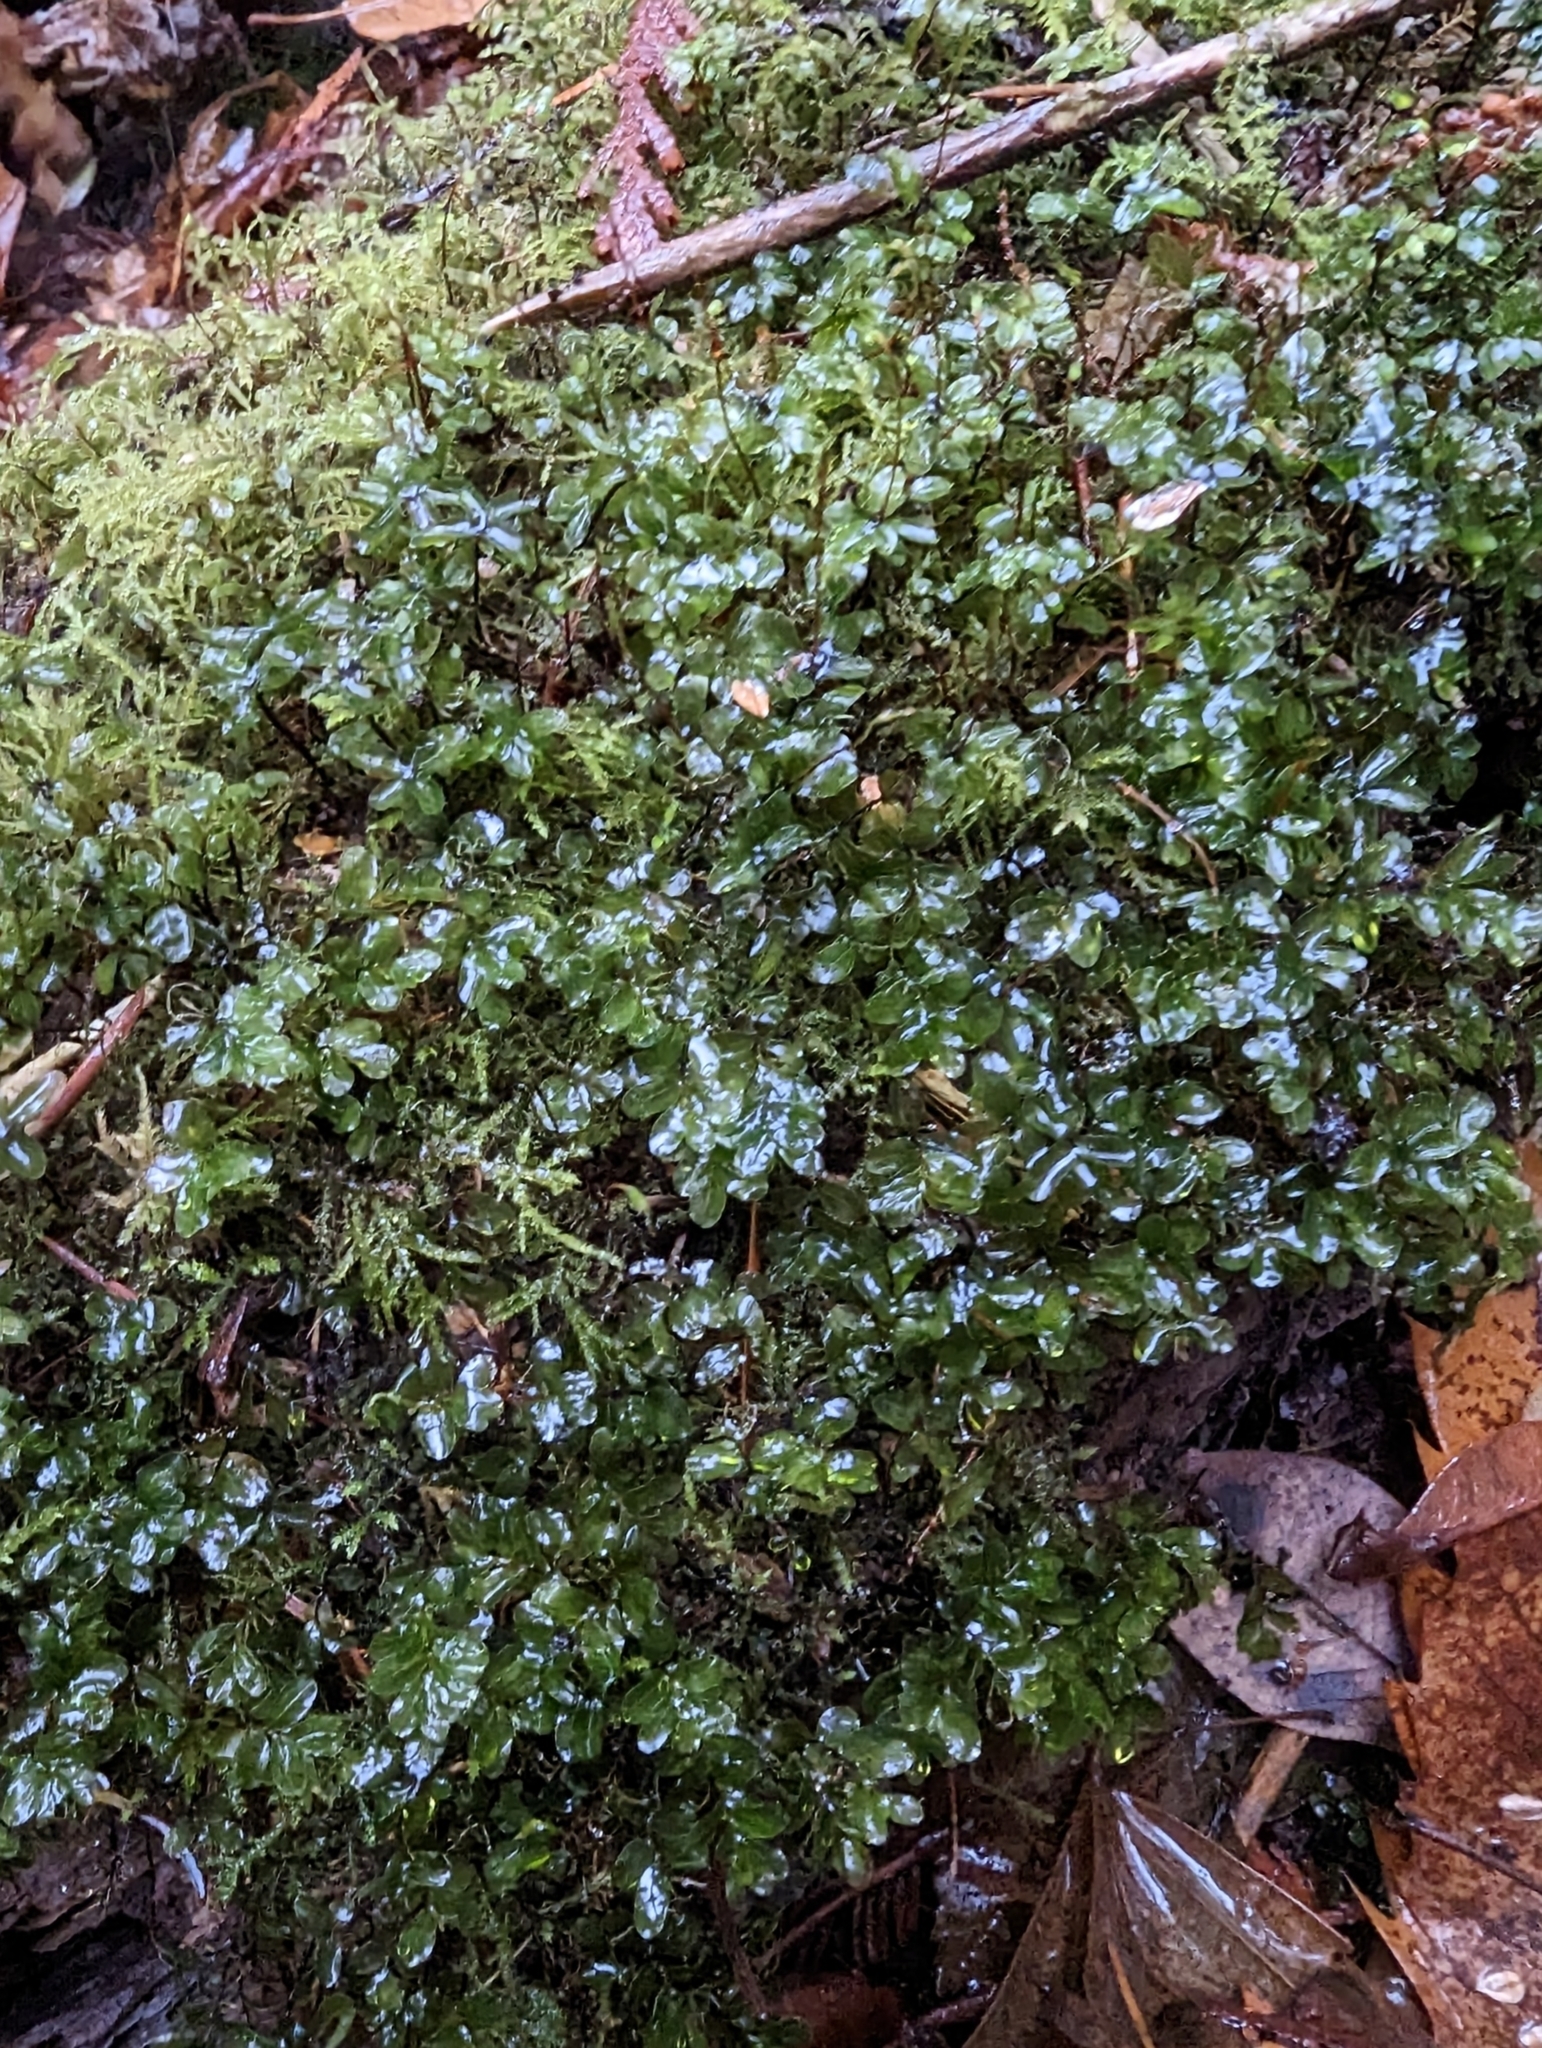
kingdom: Plantae
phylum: Bryophyta
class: Bryopsida
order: Bryales
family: Mniaceae
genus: Rhizomnium
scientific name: Rhizomnium glabrescens
